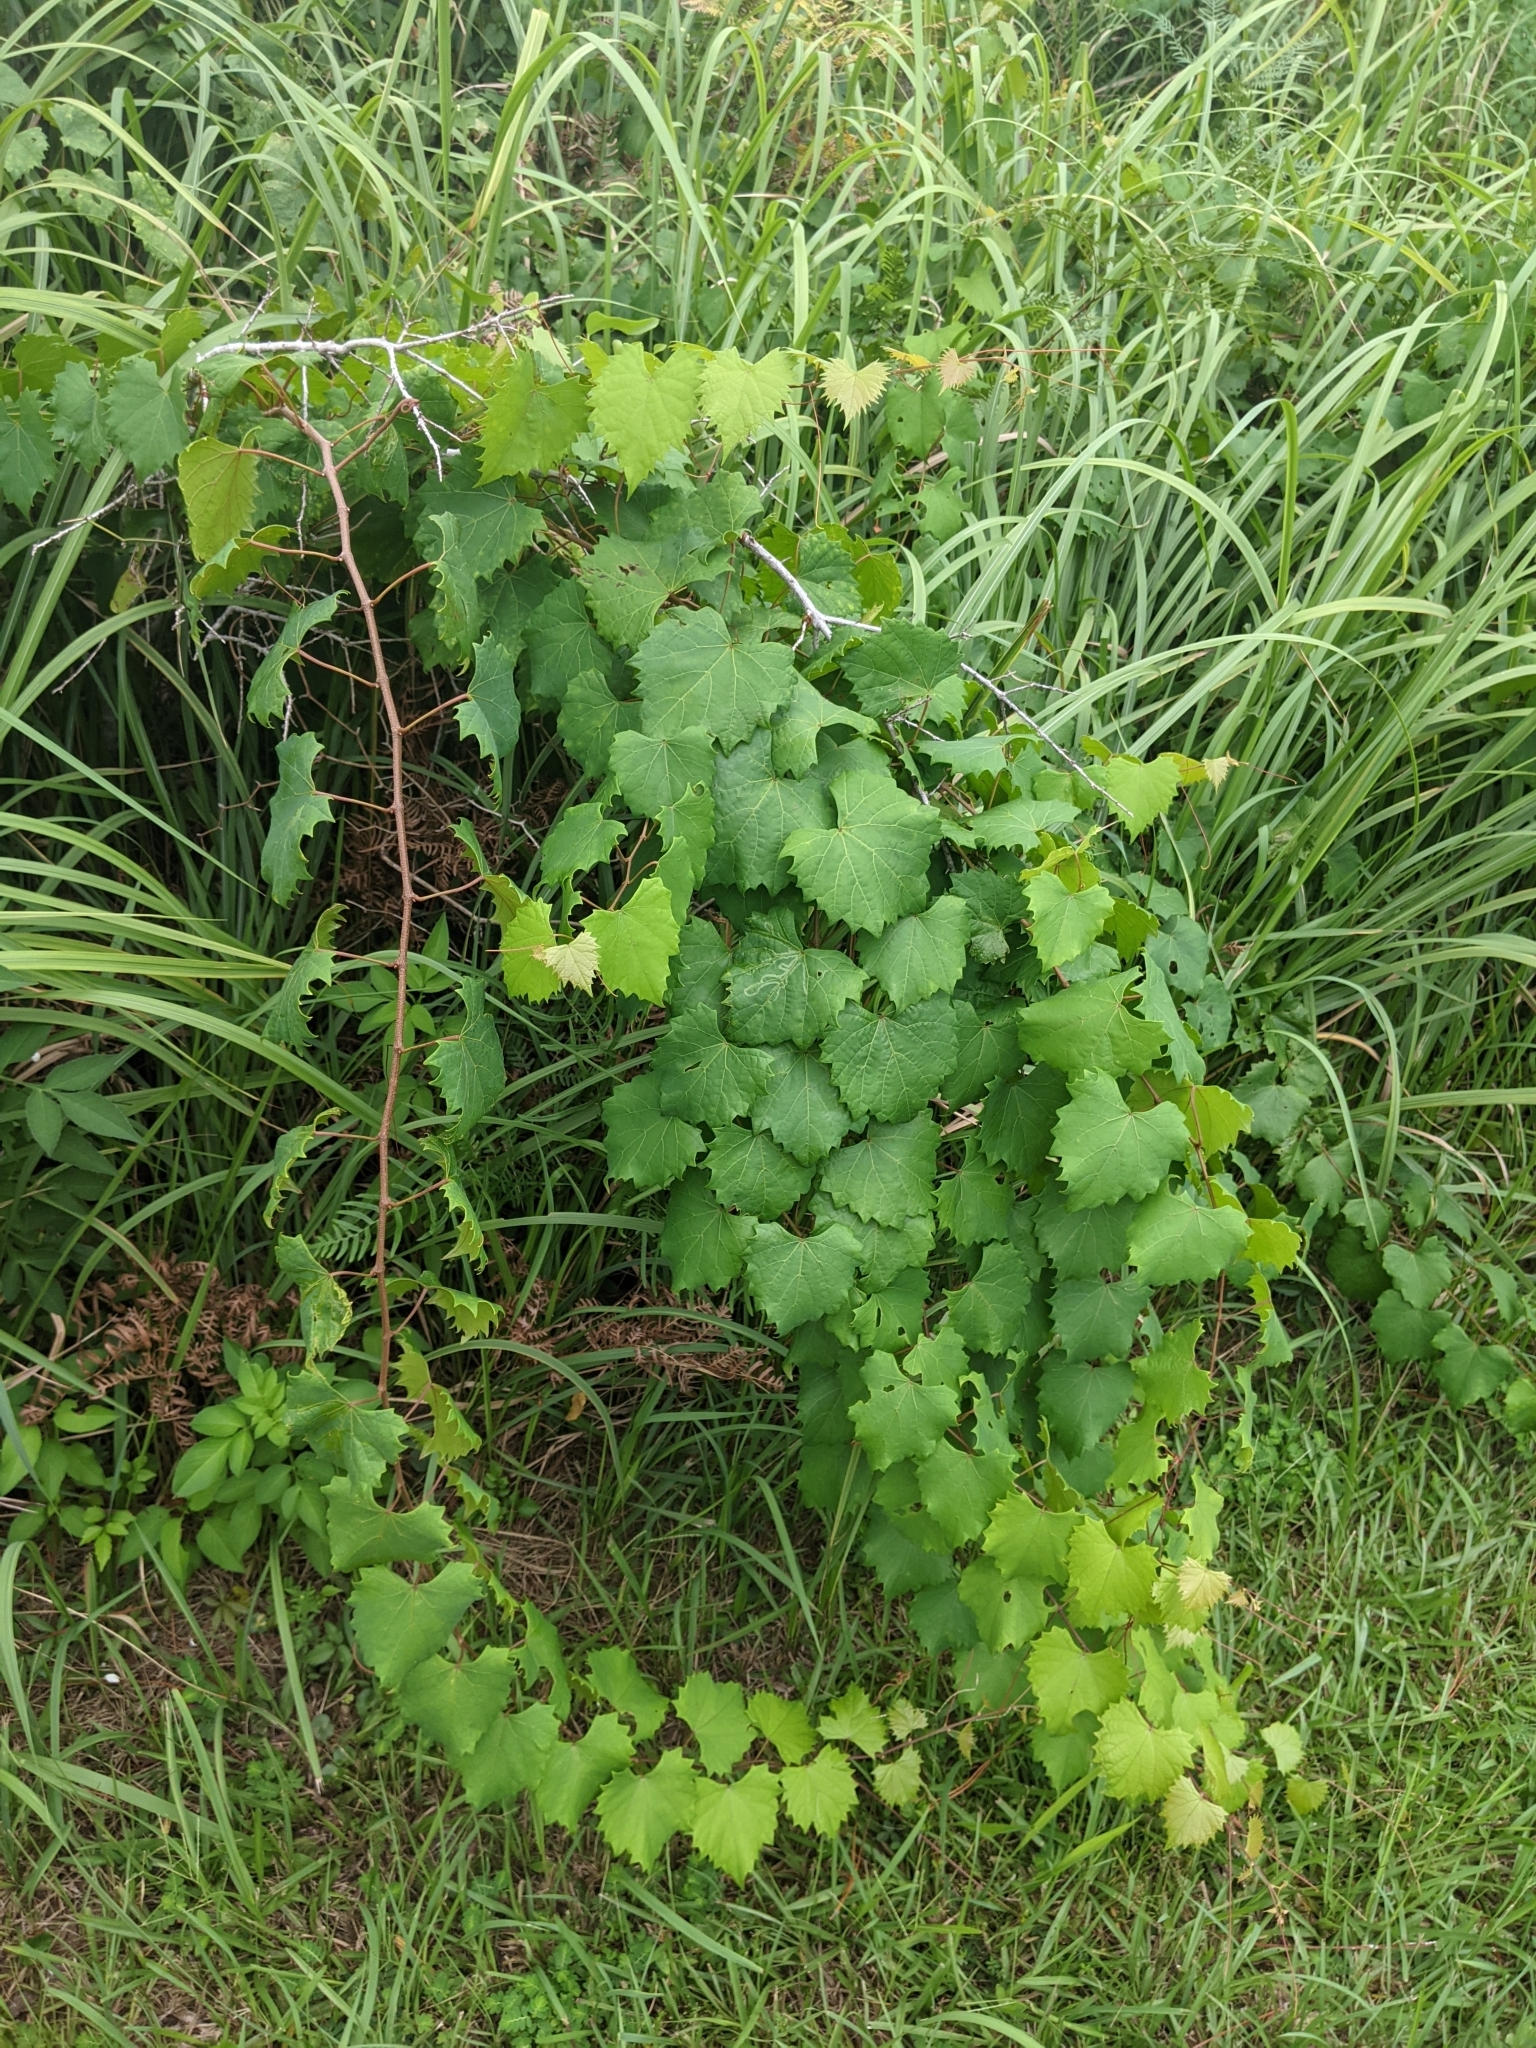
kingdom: Plantae
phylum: Tracheophyta
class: Magnoliopsida
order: Vitales
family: Vitaceae
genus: Vitis
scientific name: Vitis rotundifolia
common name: Muscadine grape
